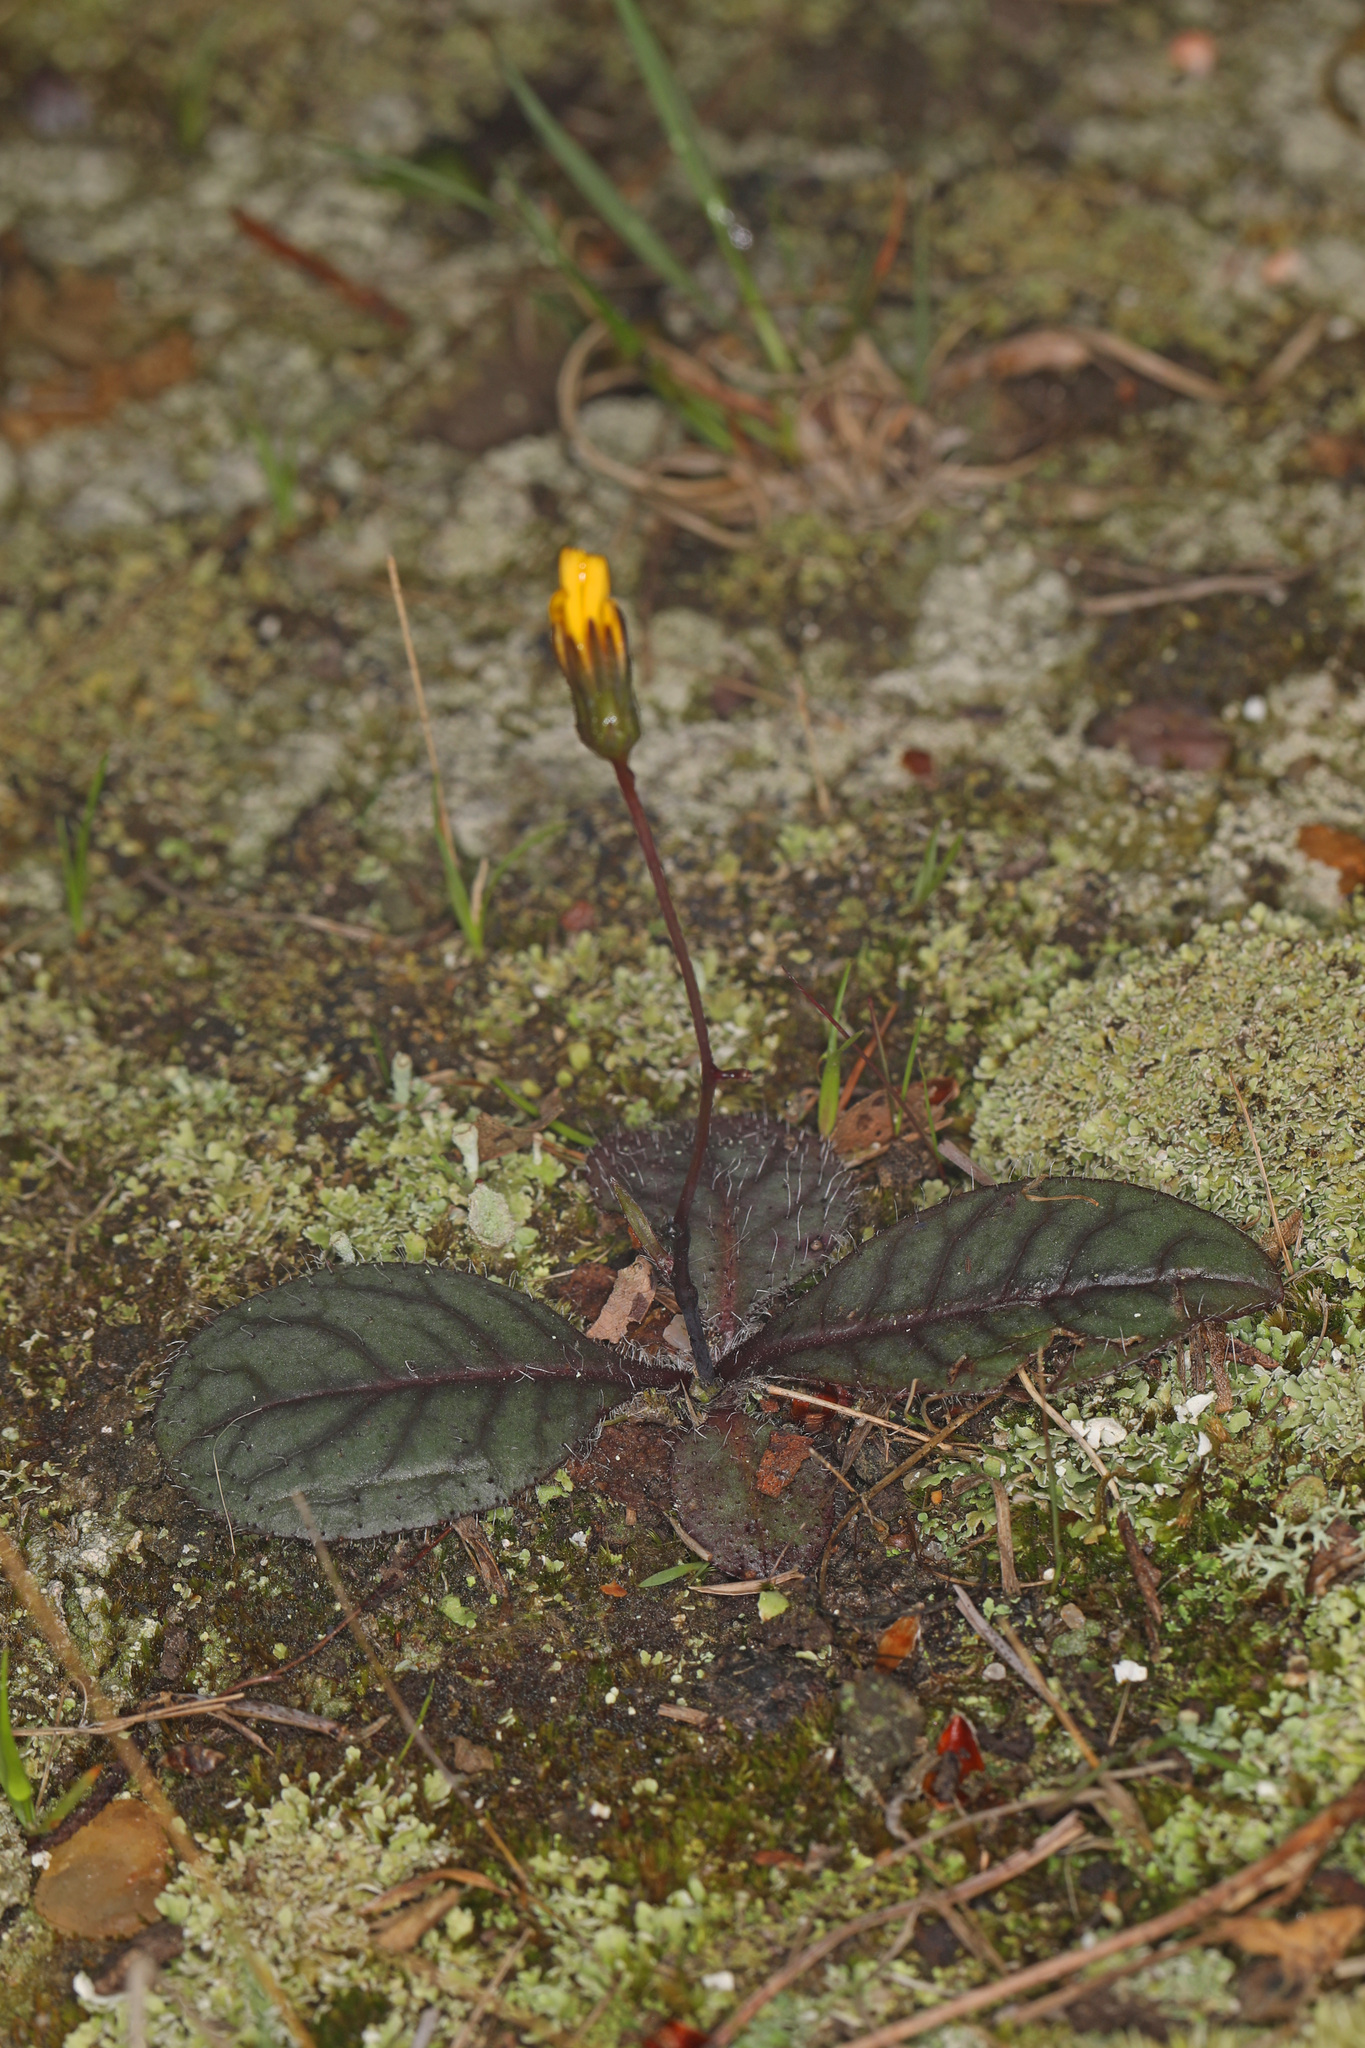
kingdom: Plantae
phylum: Tracheophyta
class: Magnoliopsida
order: Asterales
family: Asteraceae
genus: Hieracium
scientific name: Hieracium venosum
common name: Rattlesnake hawkweed
